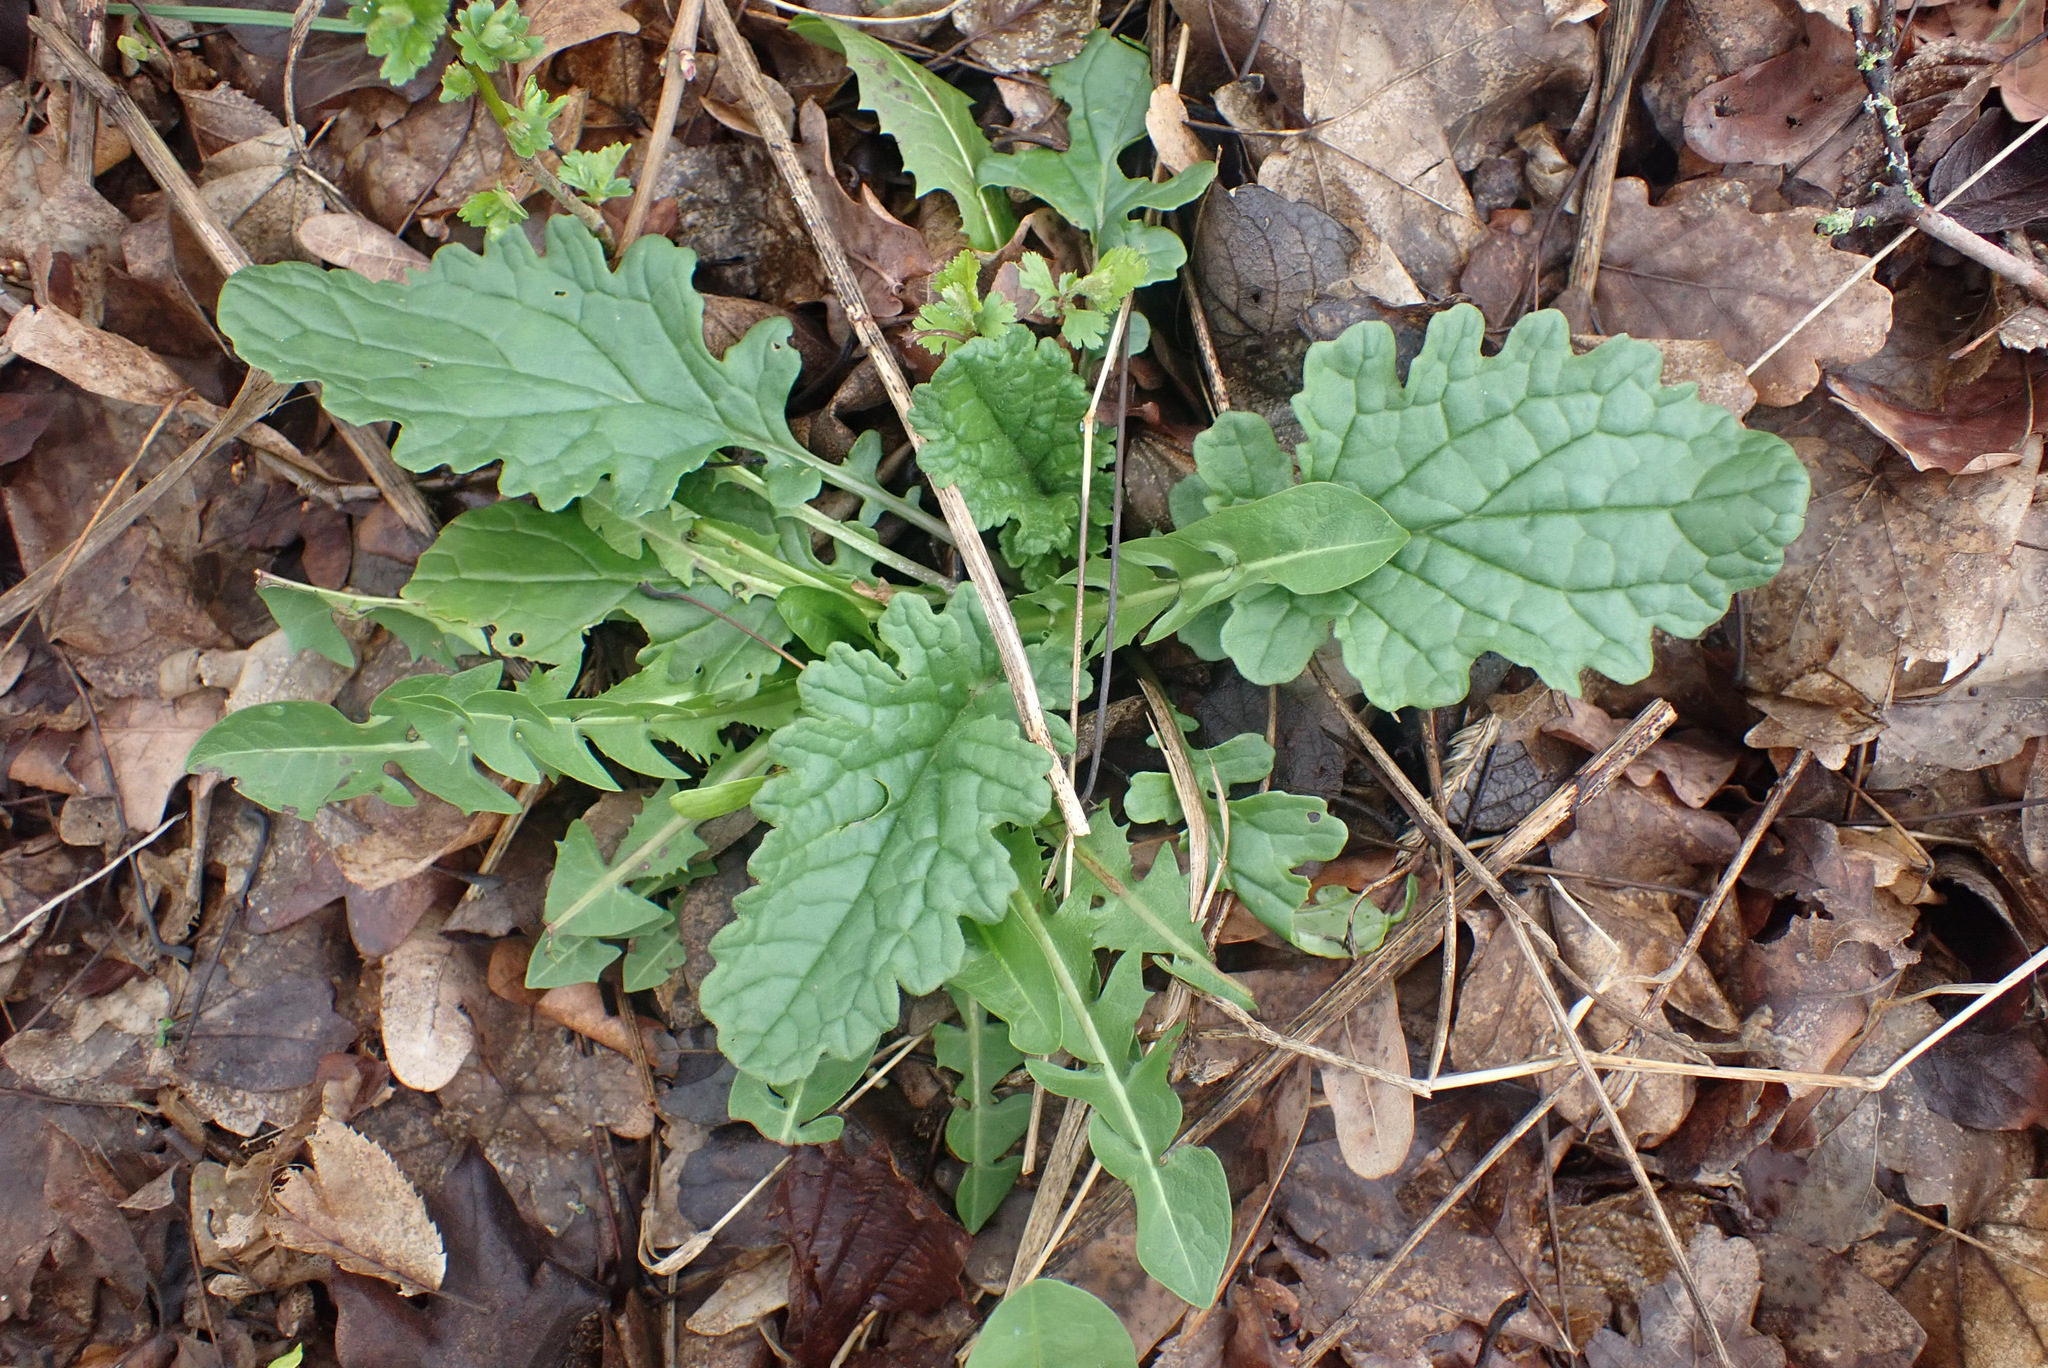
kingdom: Plantae
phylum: Tracheophyta
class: Magnoliopsida
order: Asterales
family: Asteraceae
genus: Jacobaea
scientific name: Jacobaea vulgaris
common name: Stinking willie
